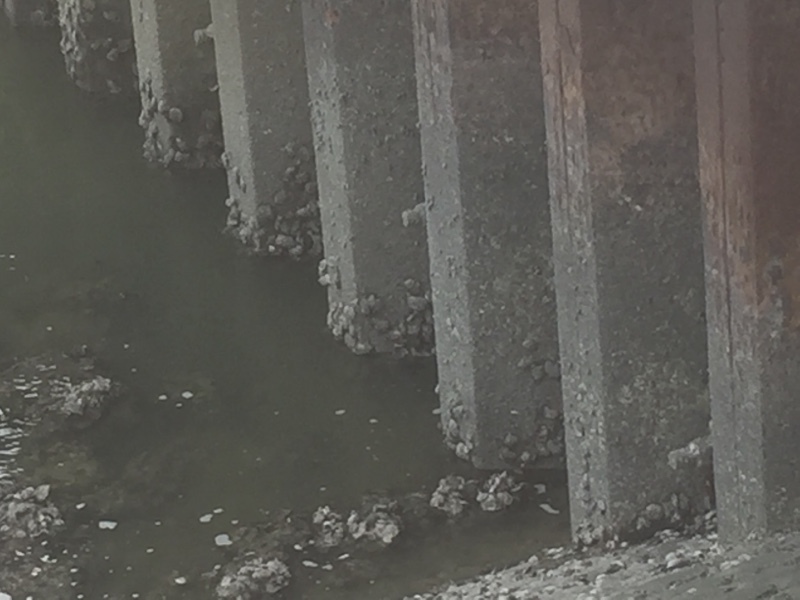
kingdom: Animalia
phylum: Mollusca
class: Bivalvia
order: Ostreida
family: Ostreidae
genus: Magallana
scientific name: Magallana gigas
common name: Pacific oyster
